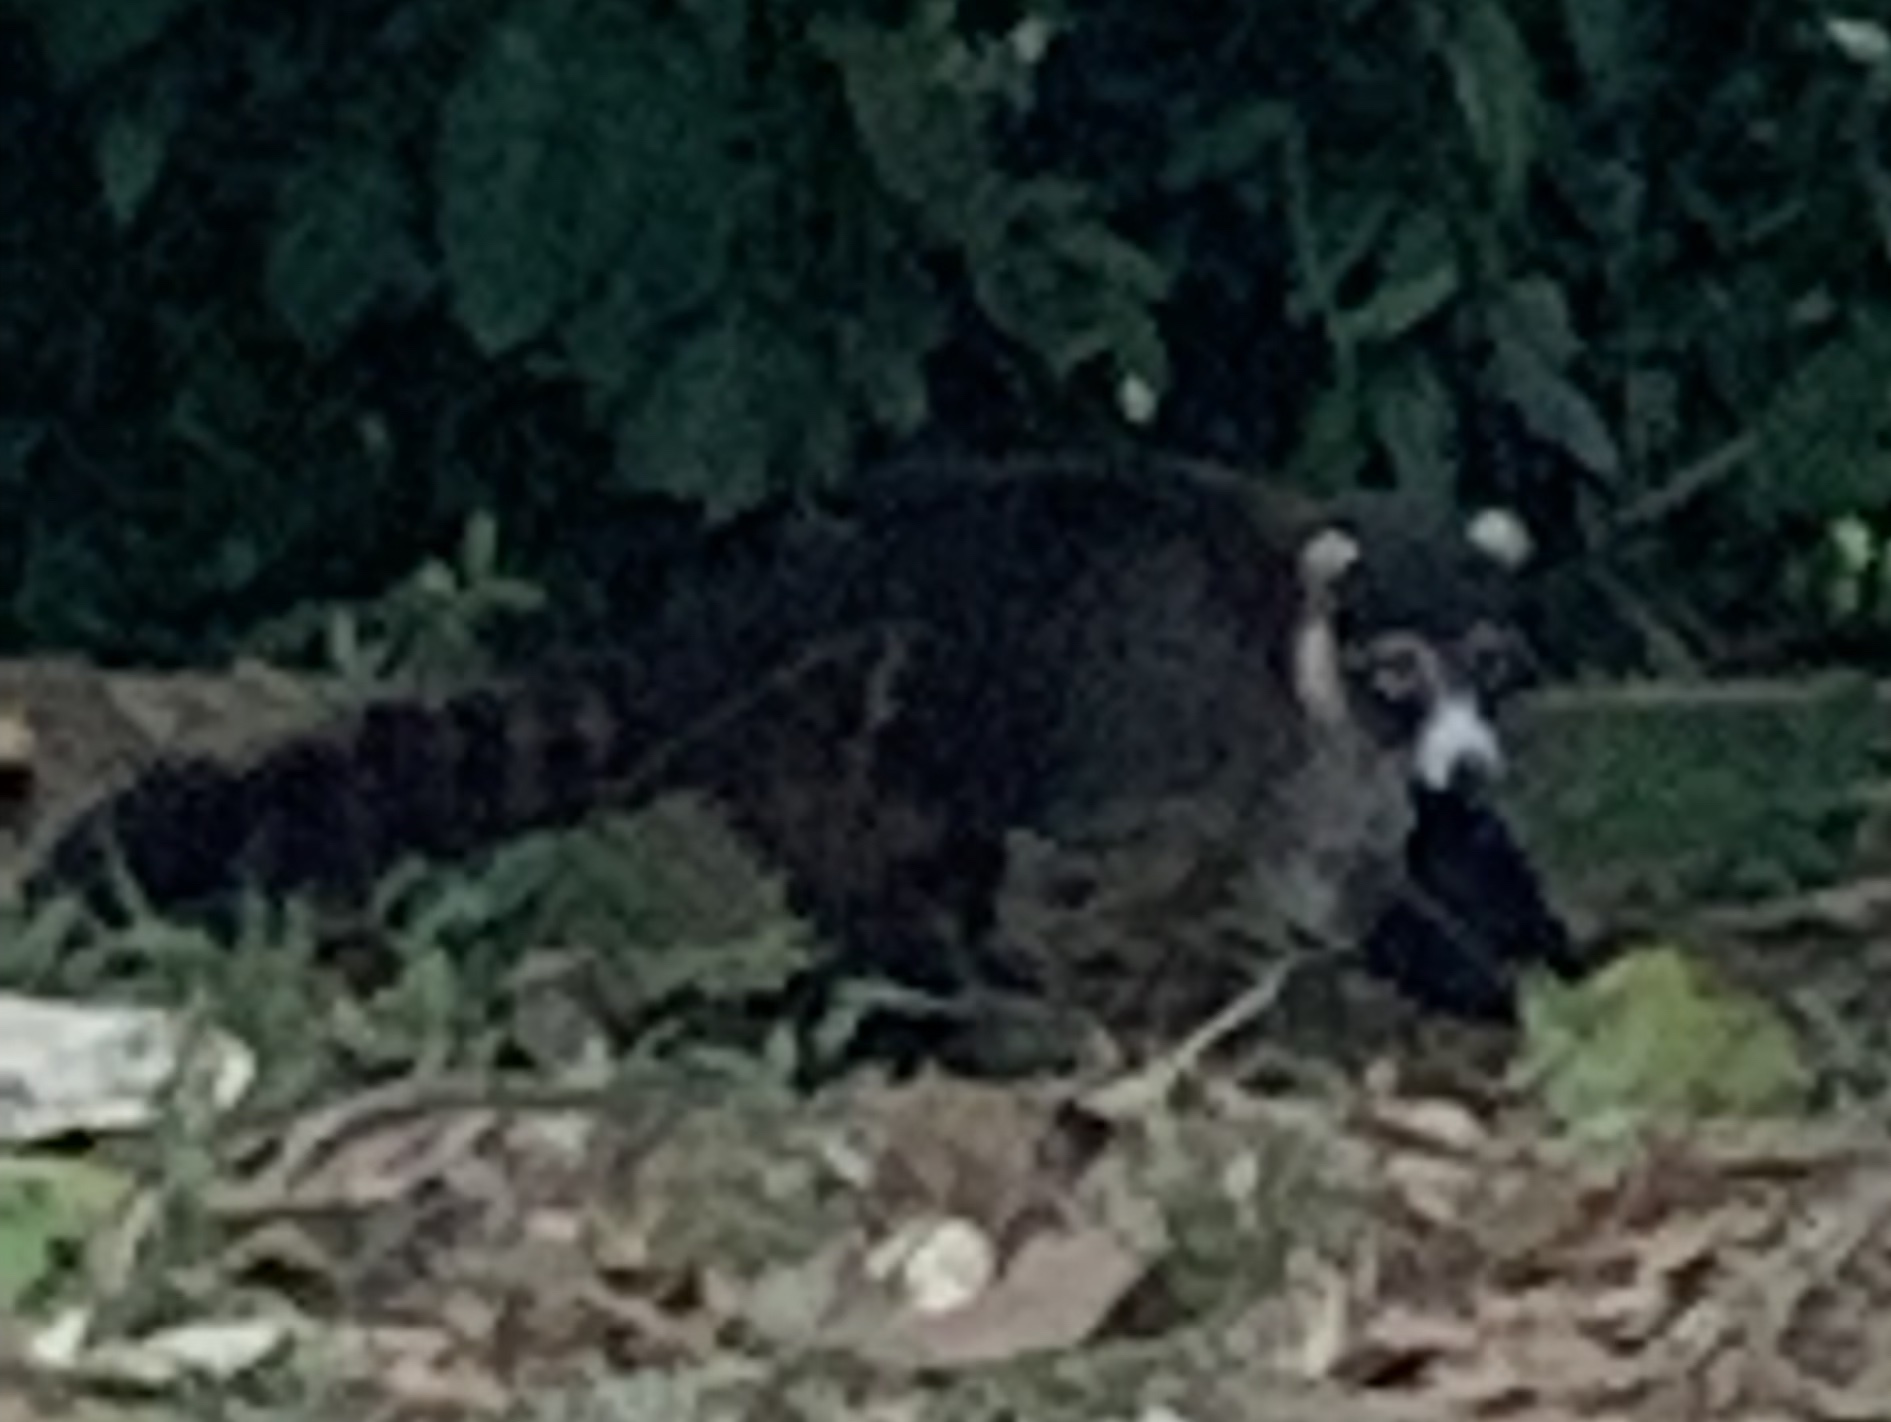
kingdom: Animalia
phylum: Chordata
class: Mammalia
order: Carnivora
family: Procyonidae
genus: Nasua
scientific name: Nasua narica
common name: White-nosed coati
